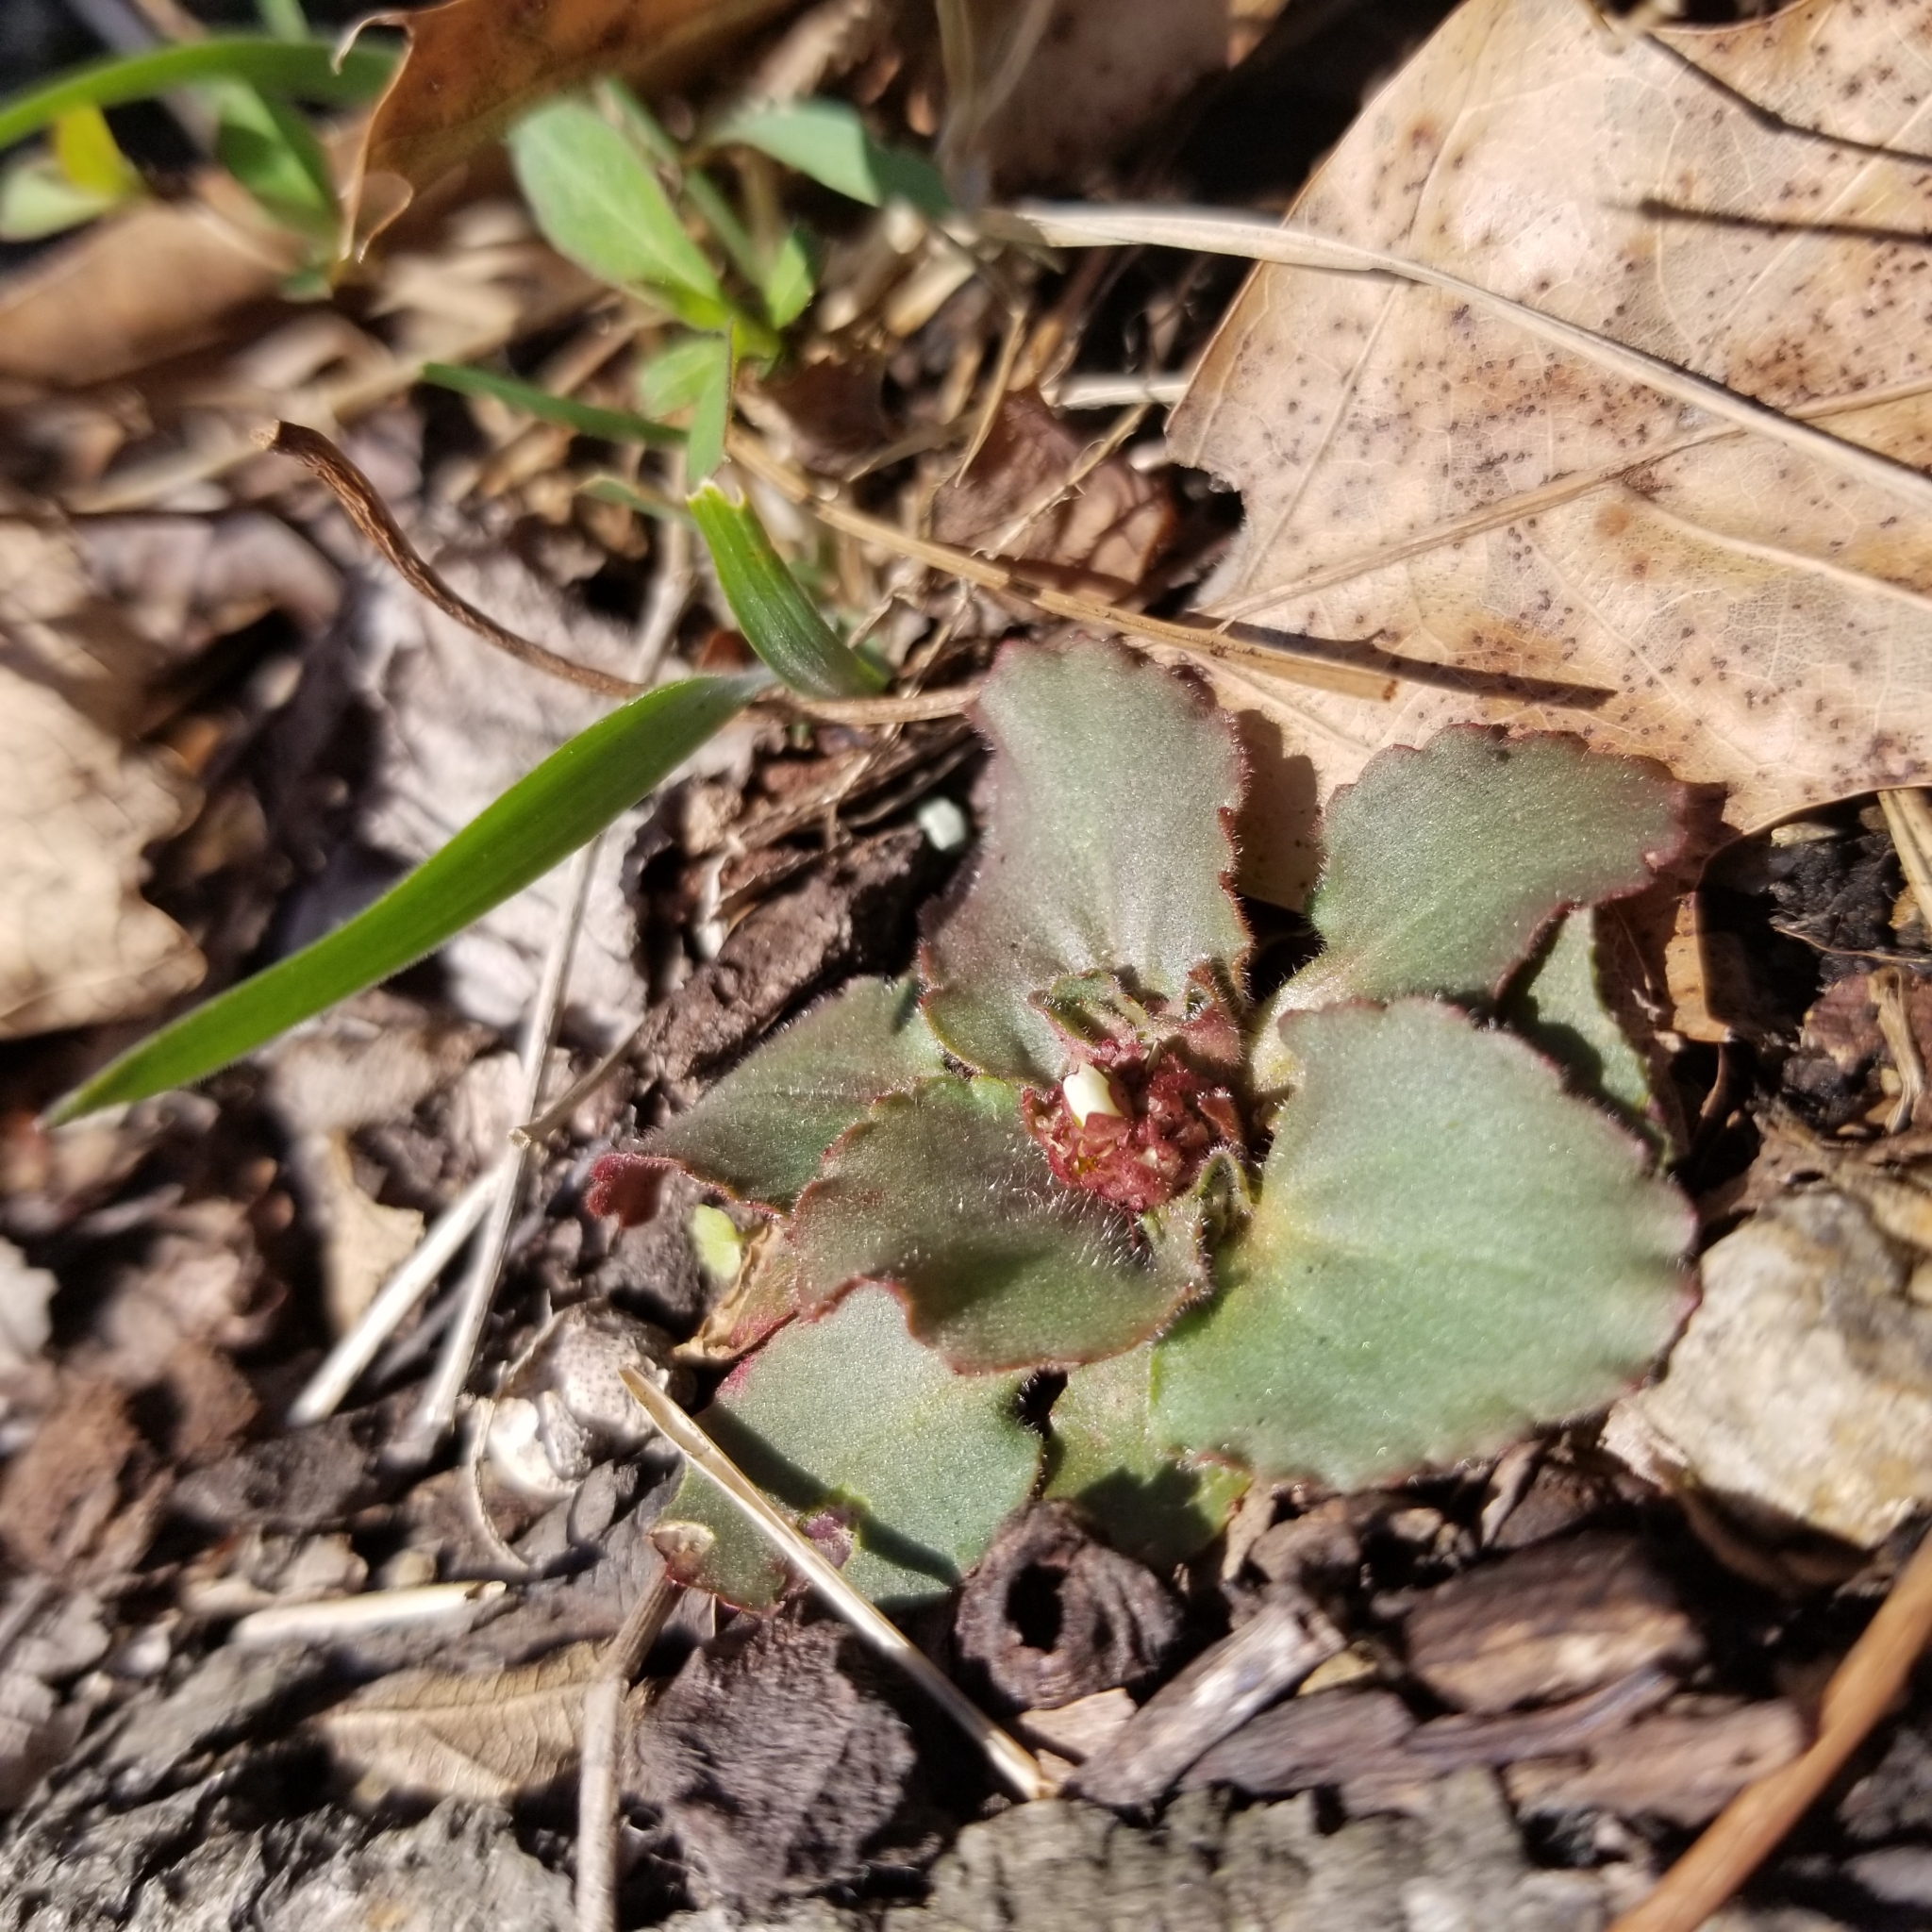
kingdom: Plantae
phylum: Tracheophyta
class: Magnoliopsida
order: Saxifragales
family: Saxifragaceae
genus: Micranthes
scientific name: Micranthes virginiensis
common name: Early saxifrage
